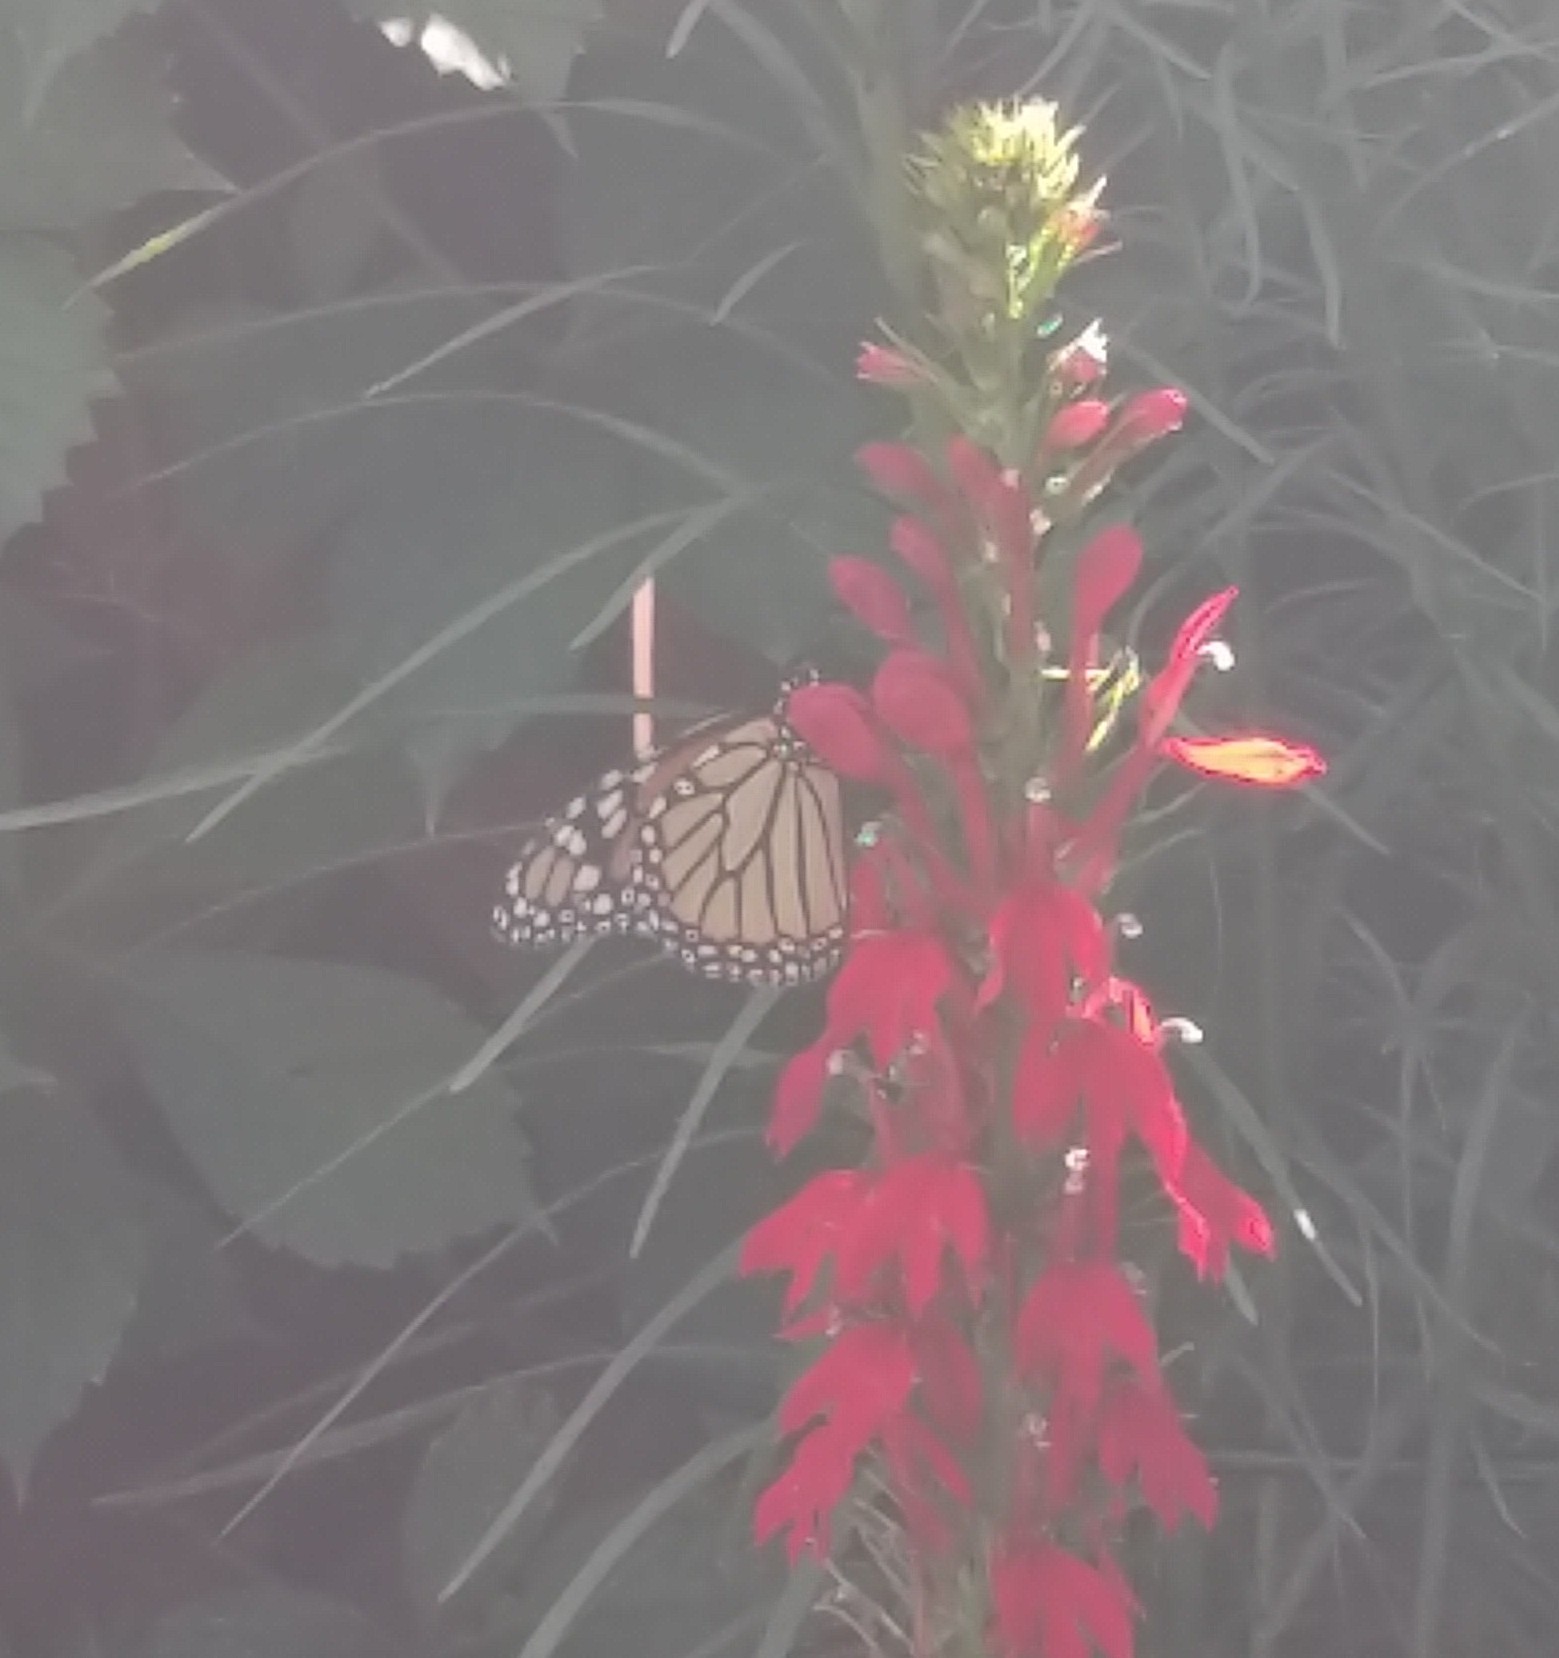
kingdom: Animalia
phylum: Arthropoda
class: Insecta
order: Lepidoptera
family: Nymphalidae
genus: Danaus
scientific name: Danaus plexippus
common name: Monarch
